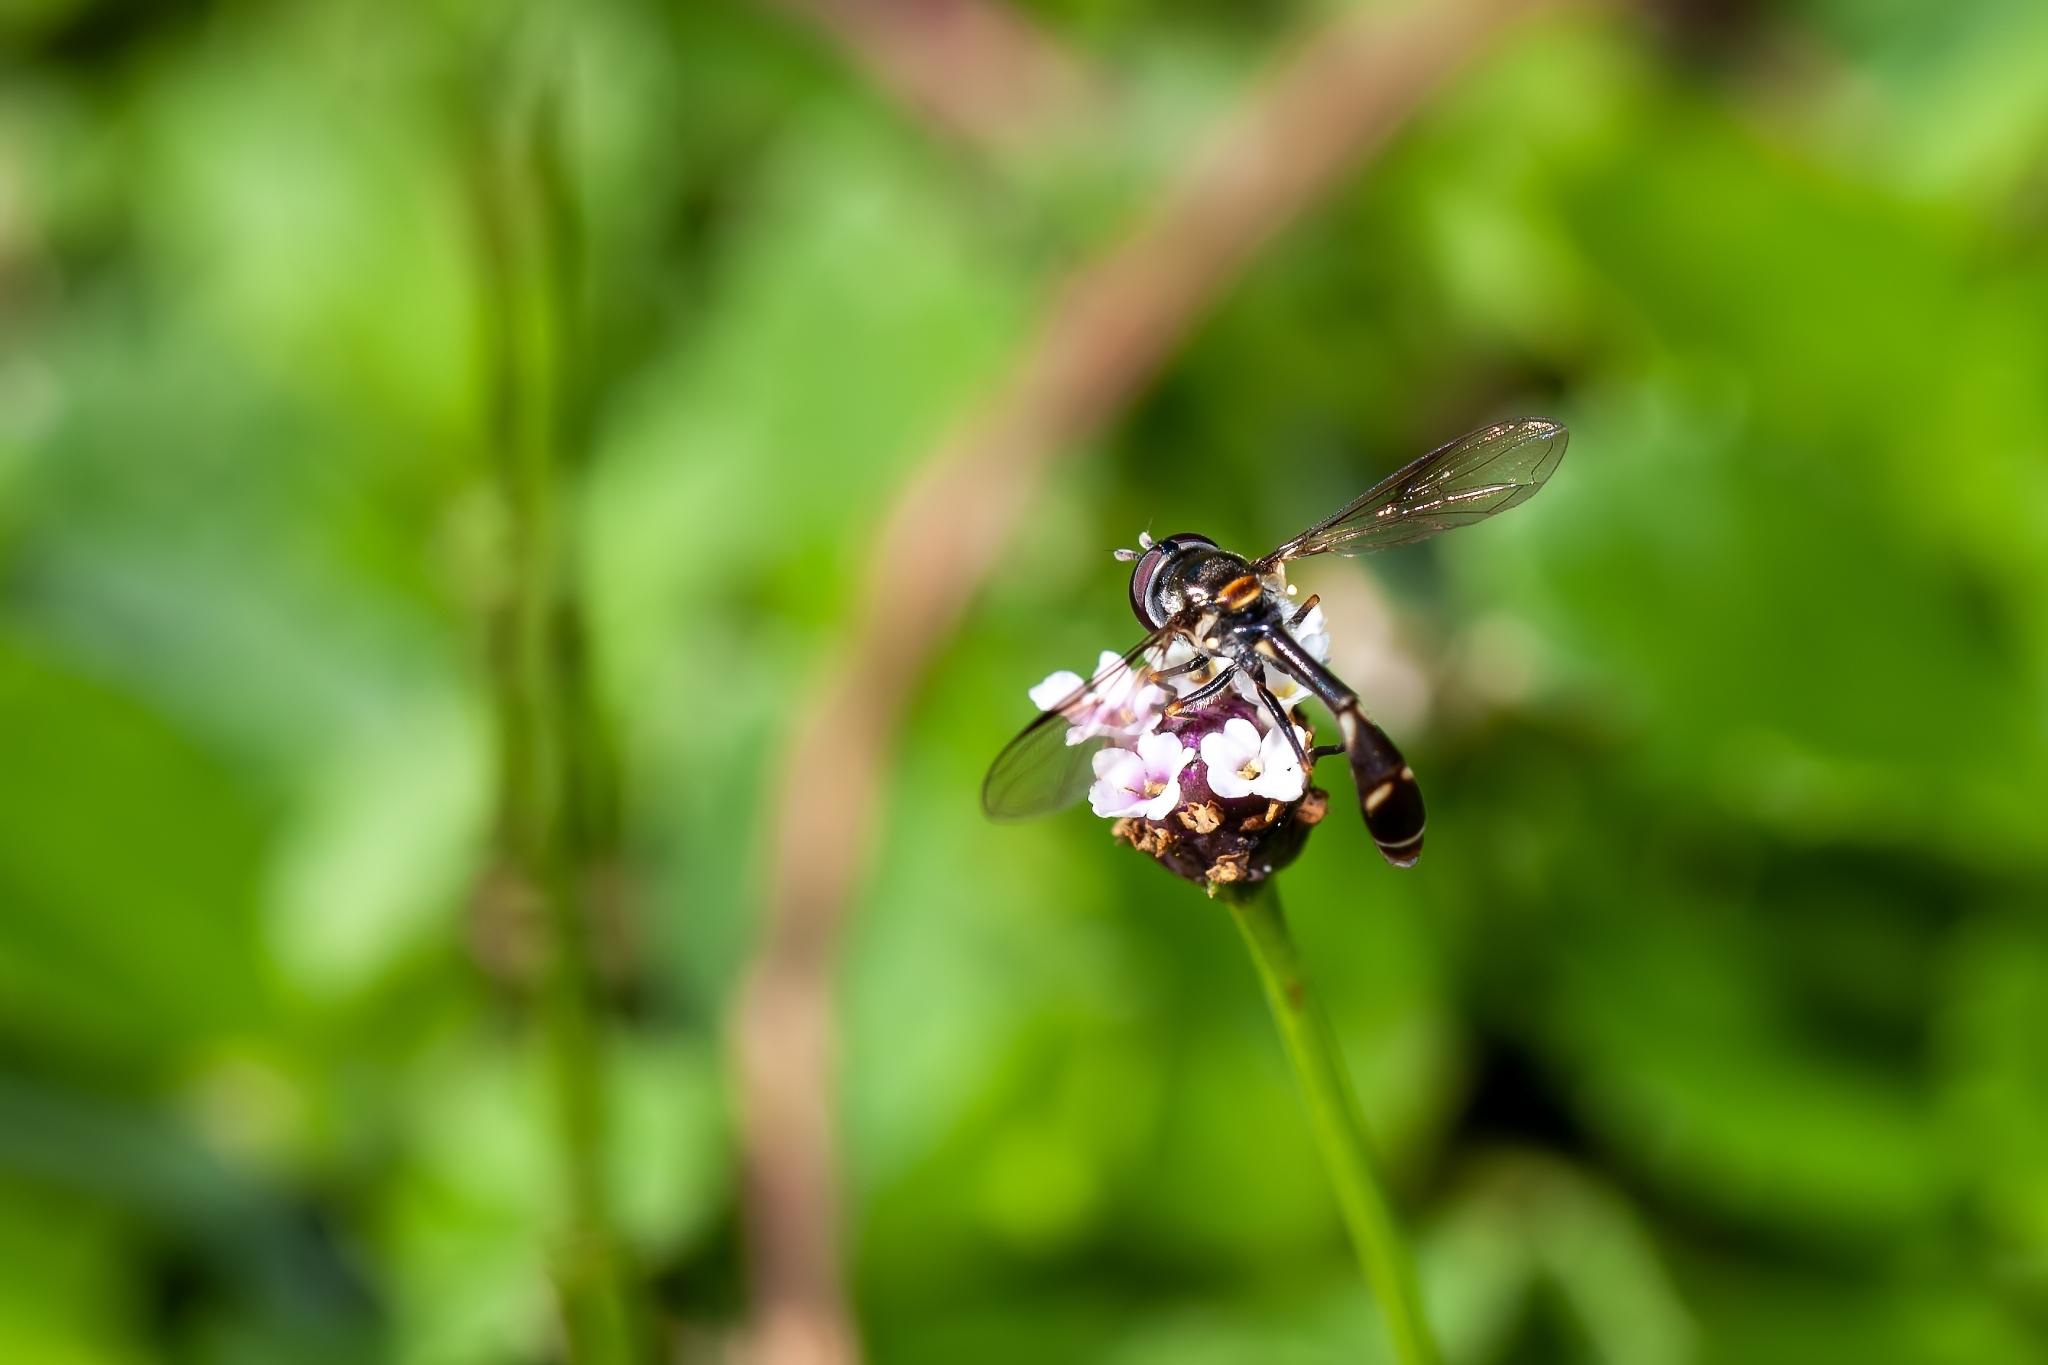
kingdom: Animalia
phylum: Arthropoda
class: Insecta
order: Diptera
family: Syrphidae
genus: Dioprosopa
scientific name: Dioprosopa clavatus
